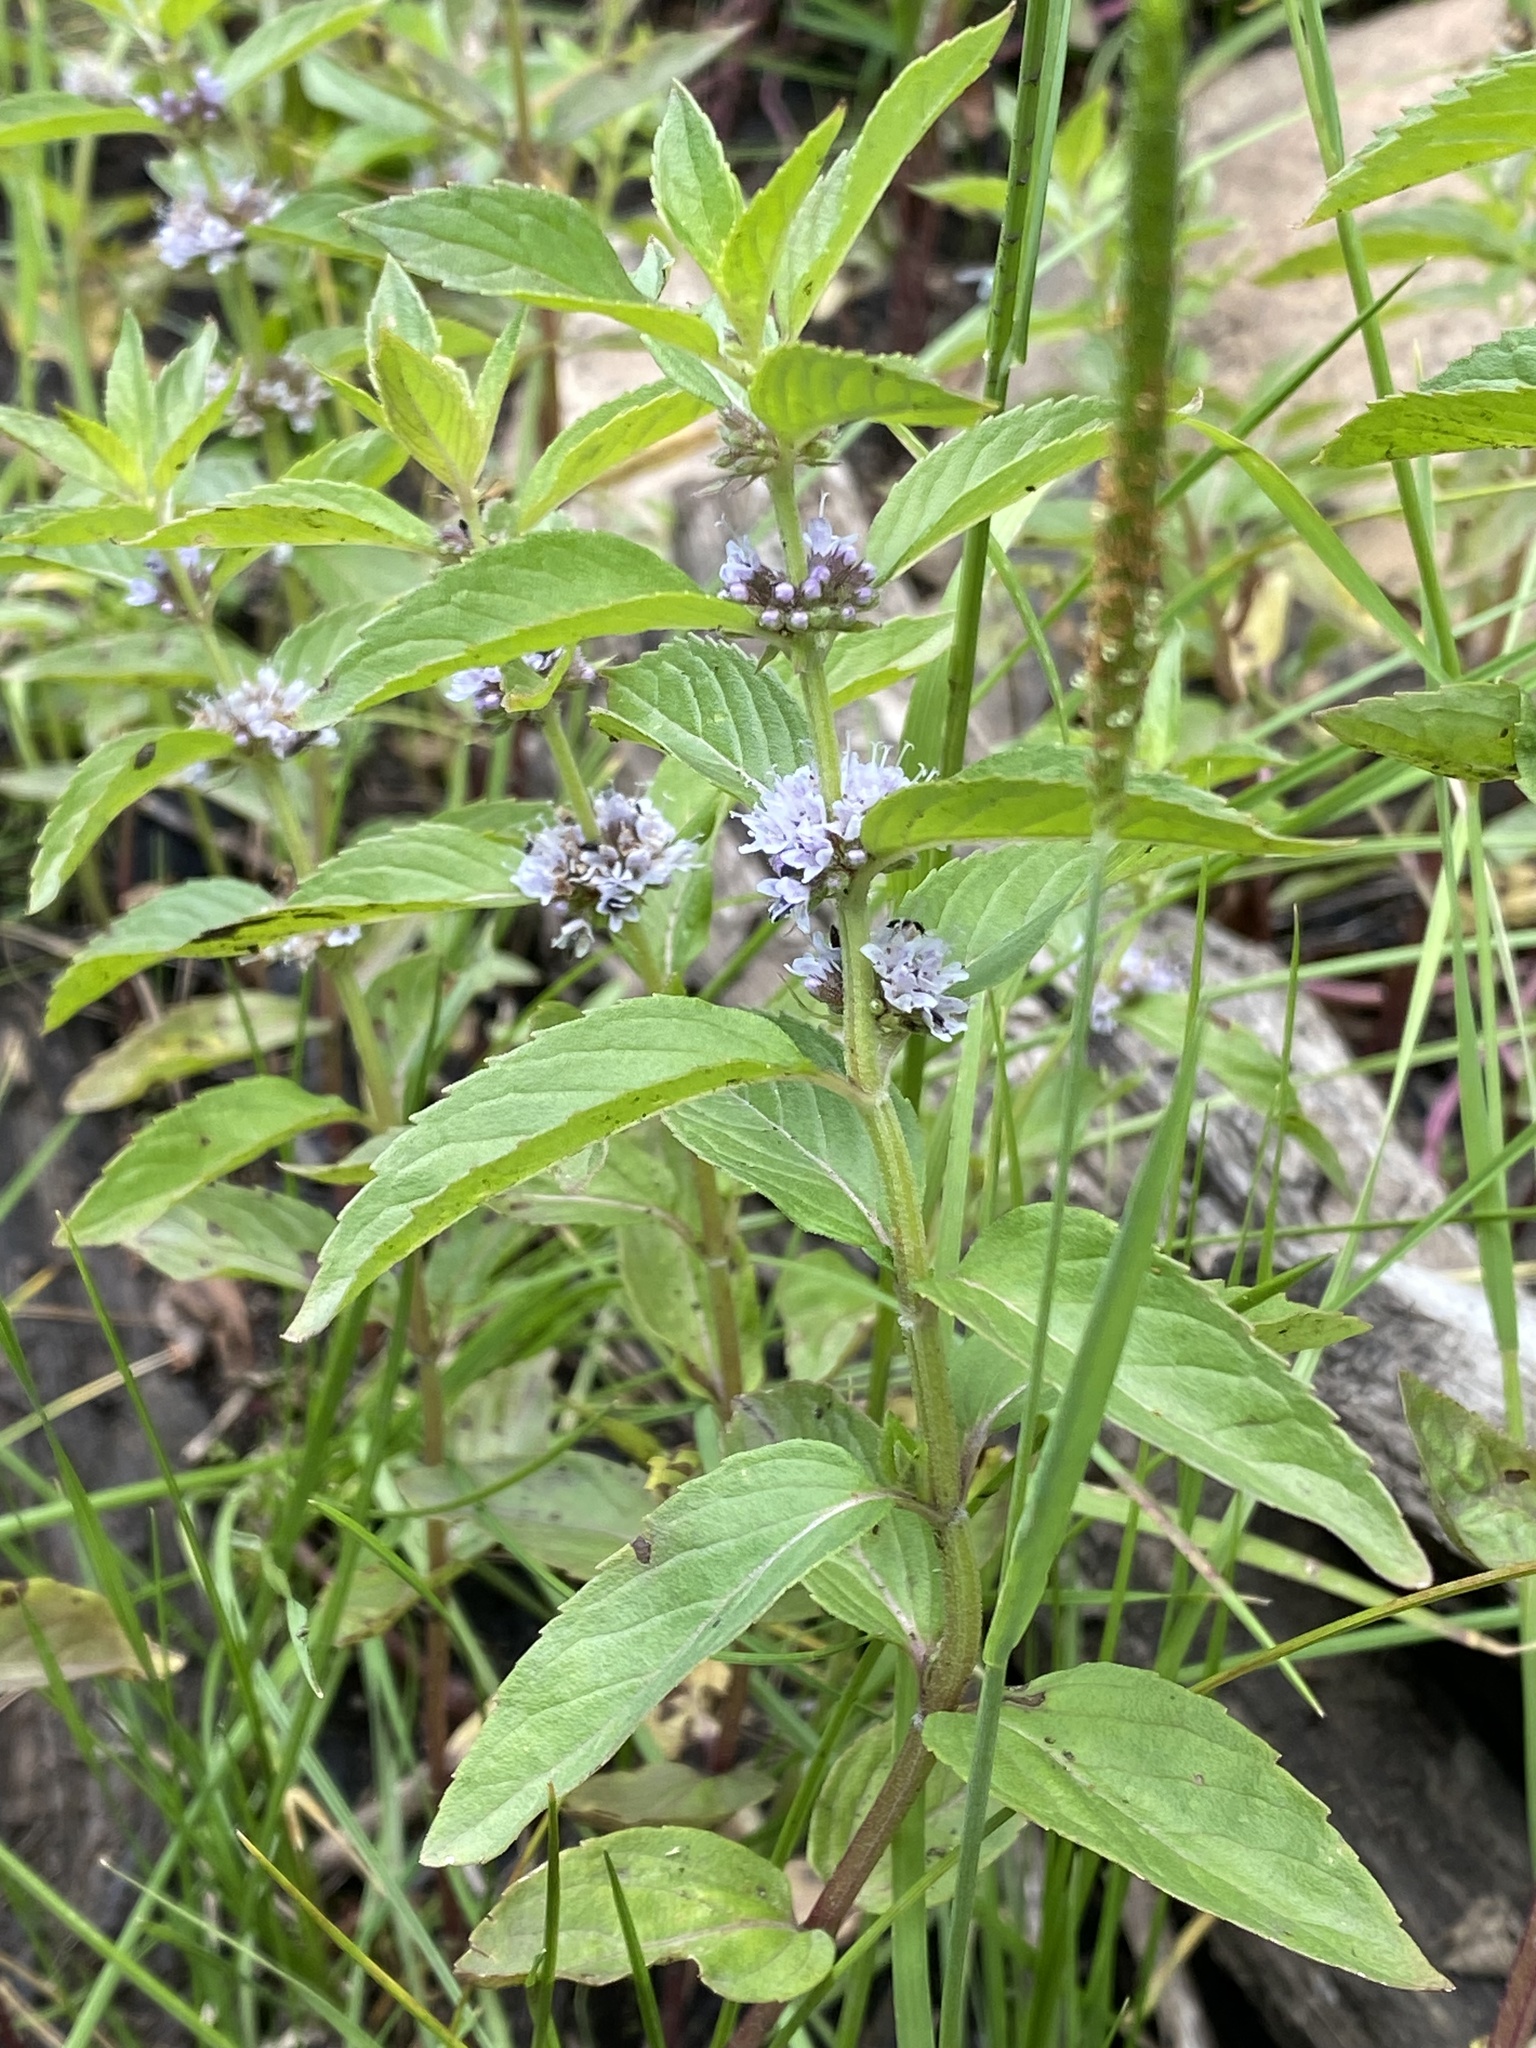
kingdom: Plantae
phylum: Tracheophyta
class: Magnoliopsida
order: Lamiales
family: Lamiaceae
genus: Mentha
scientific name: Mentha canadensis
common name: American corn mint
